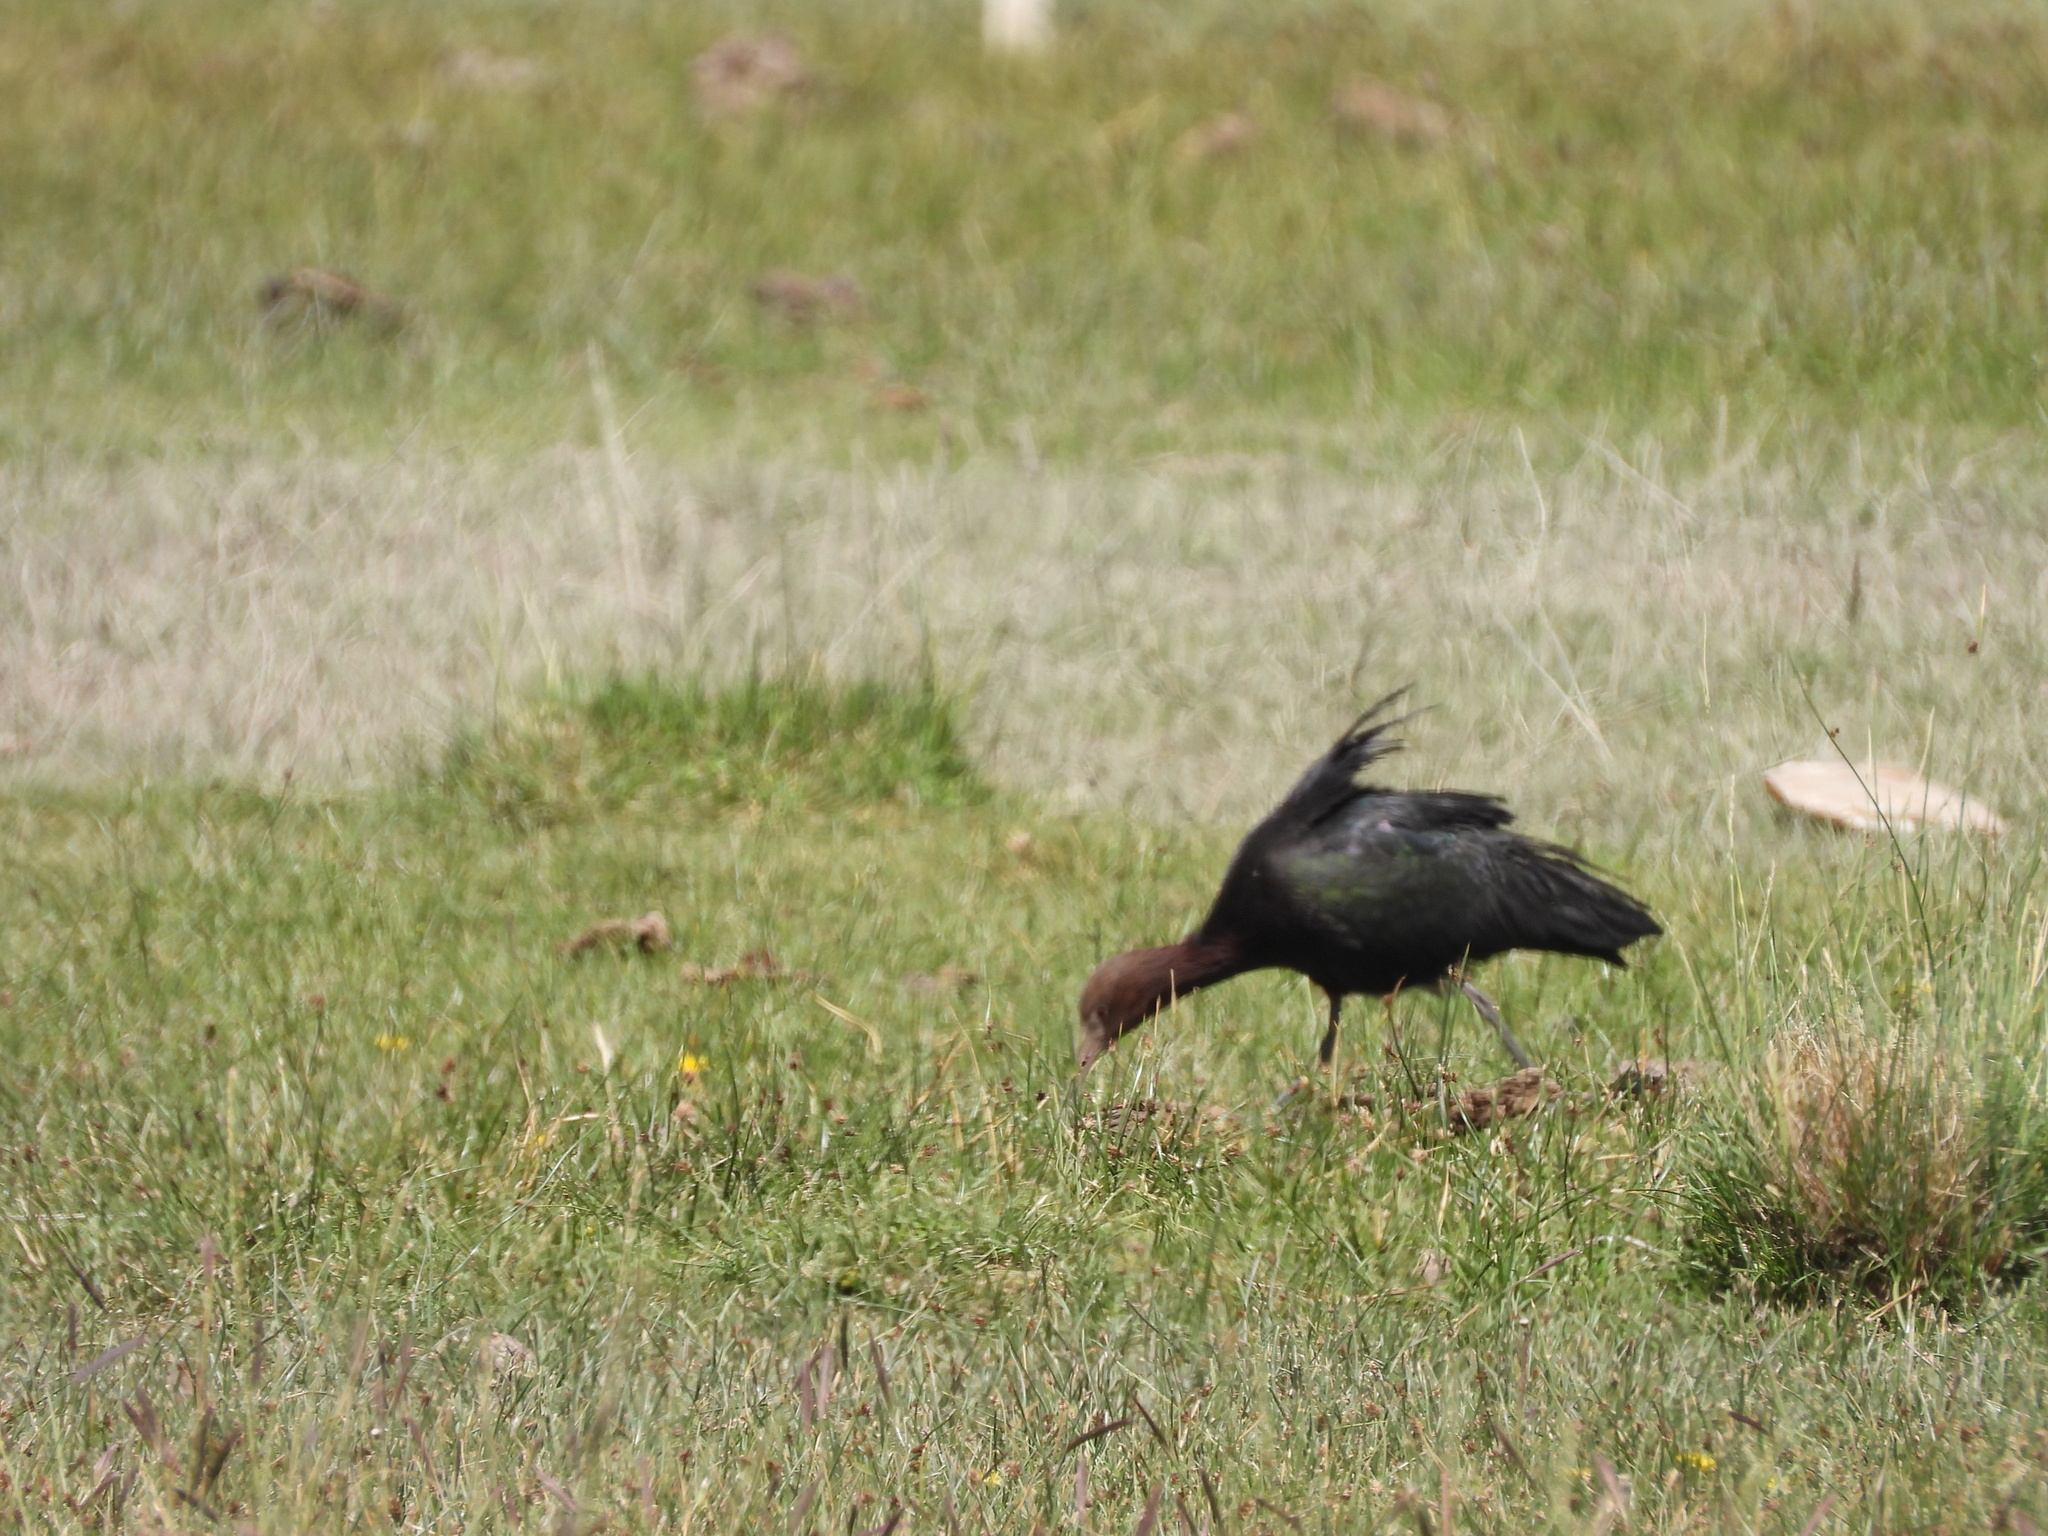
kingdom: Animalia
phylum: Chordata
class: Aves
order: Pelecaniformes
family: Threskiornithidae
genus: Plegadis
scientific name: Plegadis ridgwayi
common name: Puna ibis
